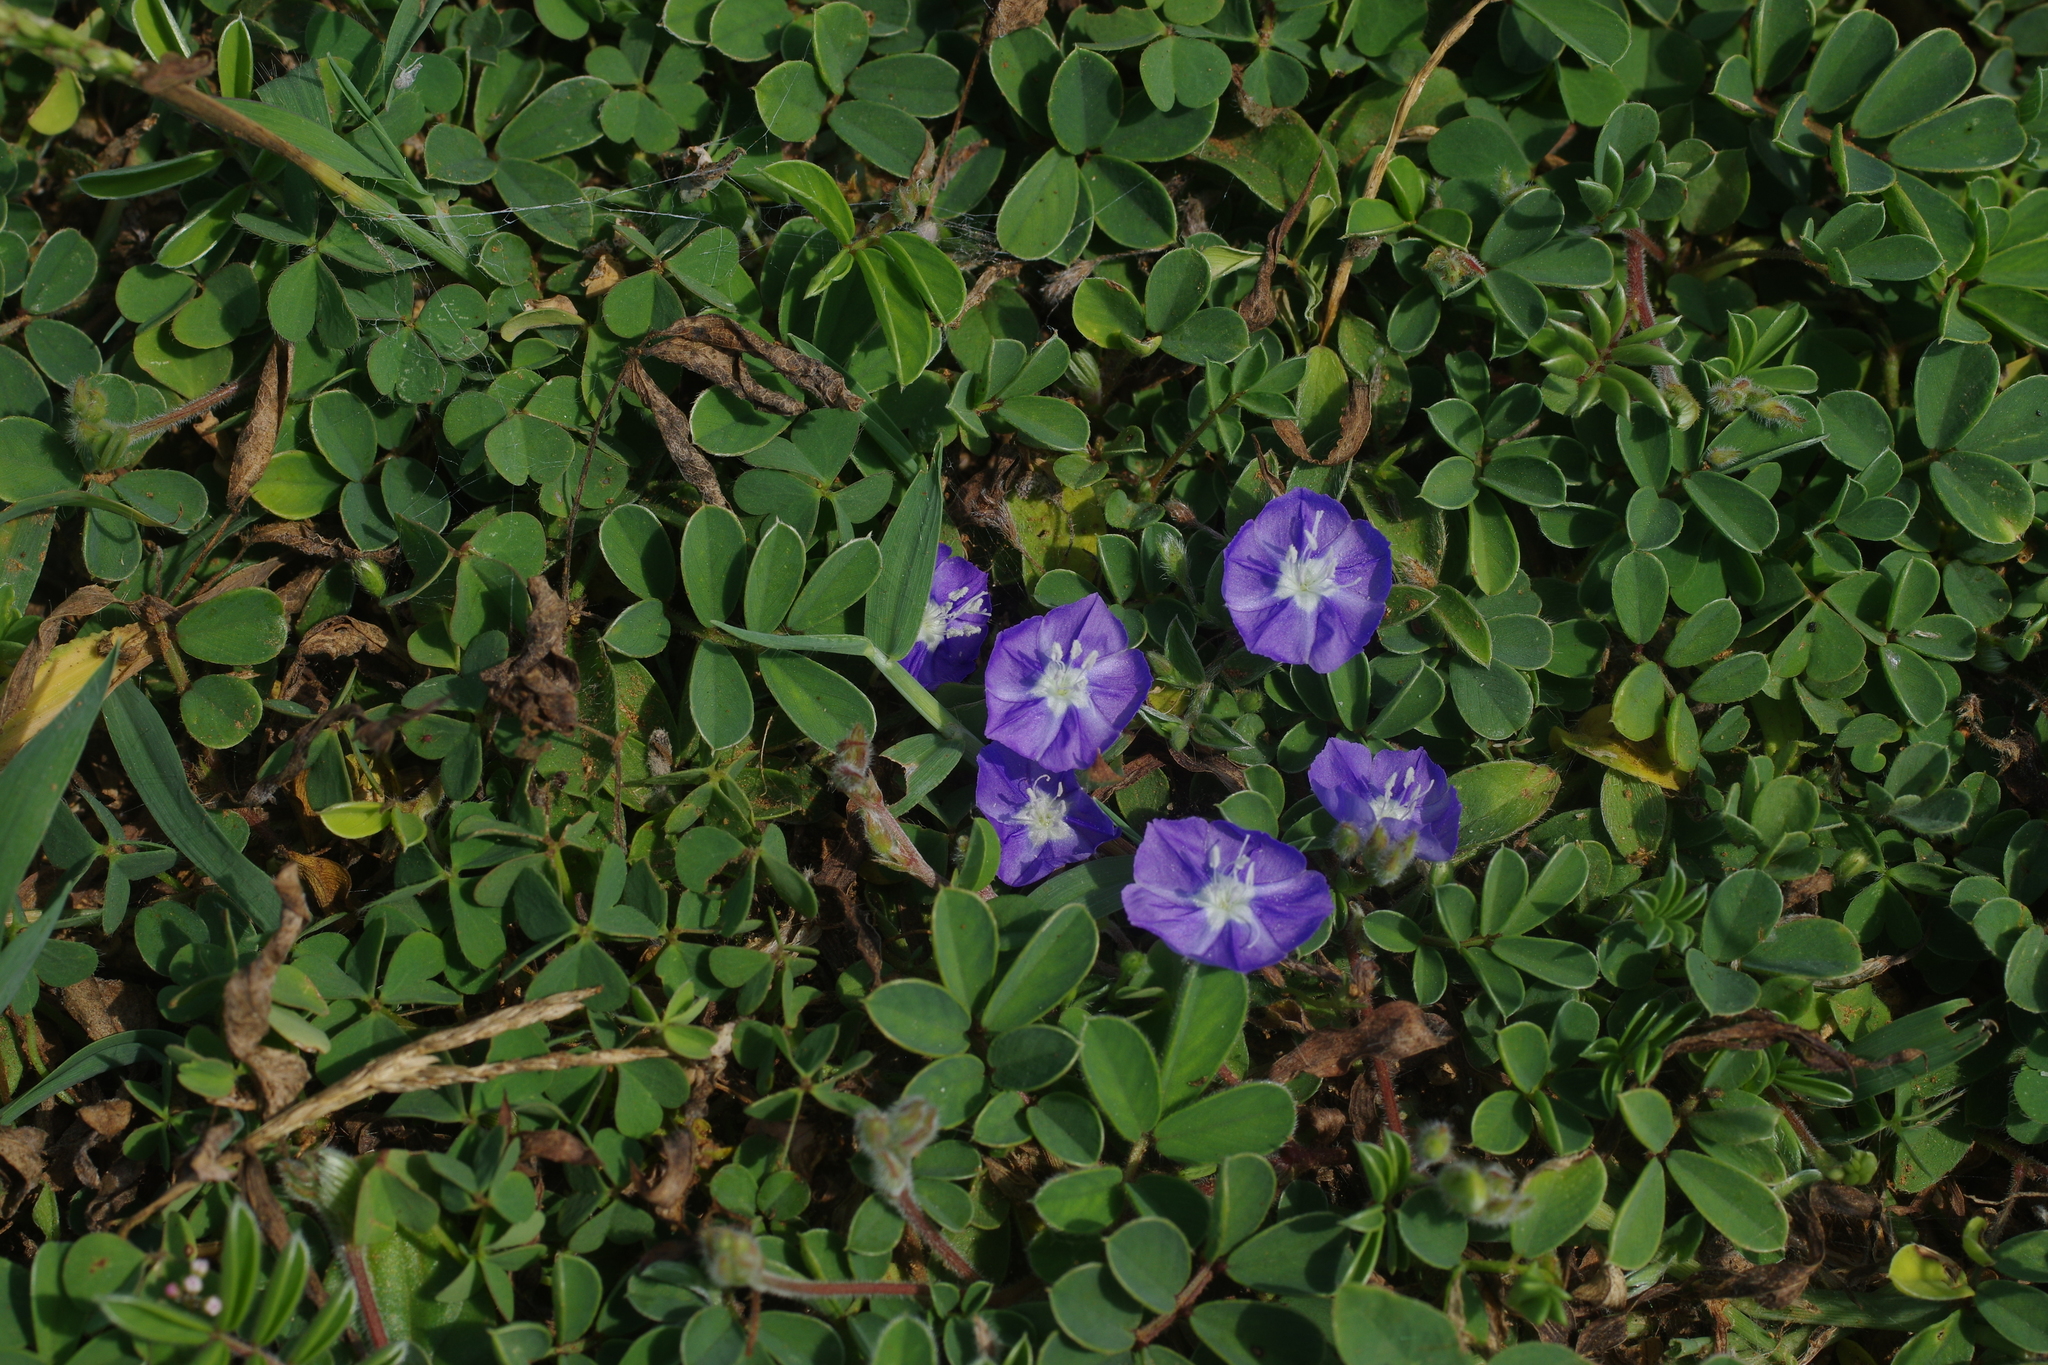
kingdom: Plantae
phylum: Tracheophyta
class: Magnoliopsida
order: Solanales
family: Convolvulaceae
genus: Evolvulus
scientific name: Evolvulus alsinoides
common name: Slender dwarf morning-glory
